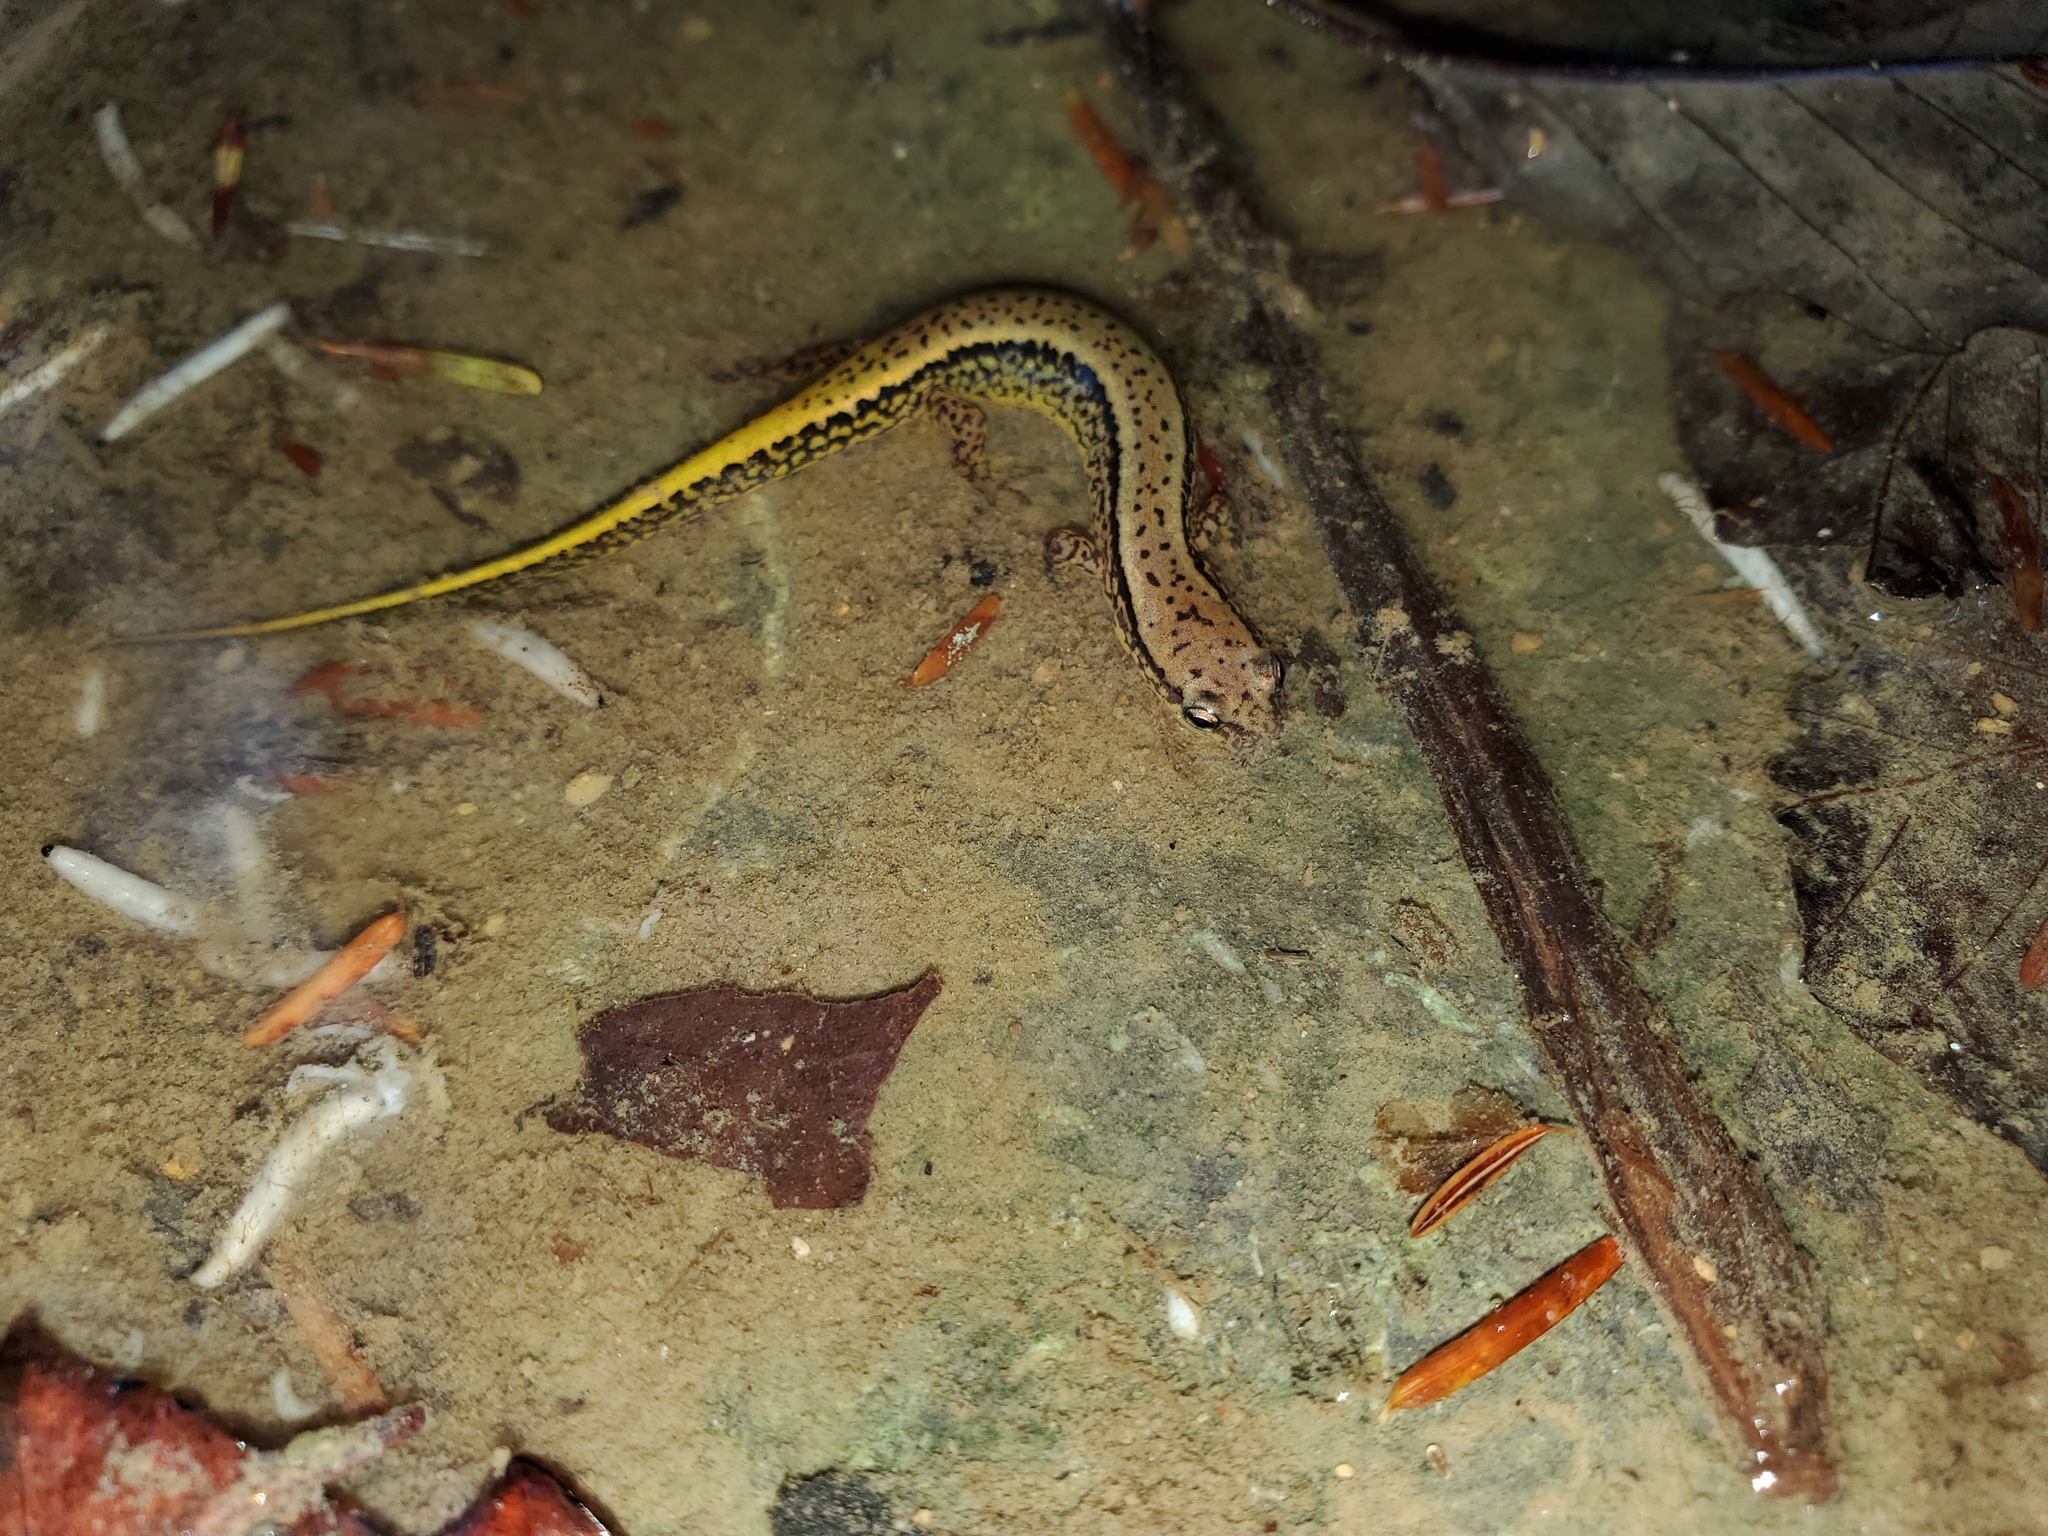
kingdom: Animalia
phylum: Chordata
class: Amphibia
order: Caudata
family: Plethodontidae
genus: Eurycea
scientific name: Eurycea cirrigera
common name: Southern two-lined salamander
